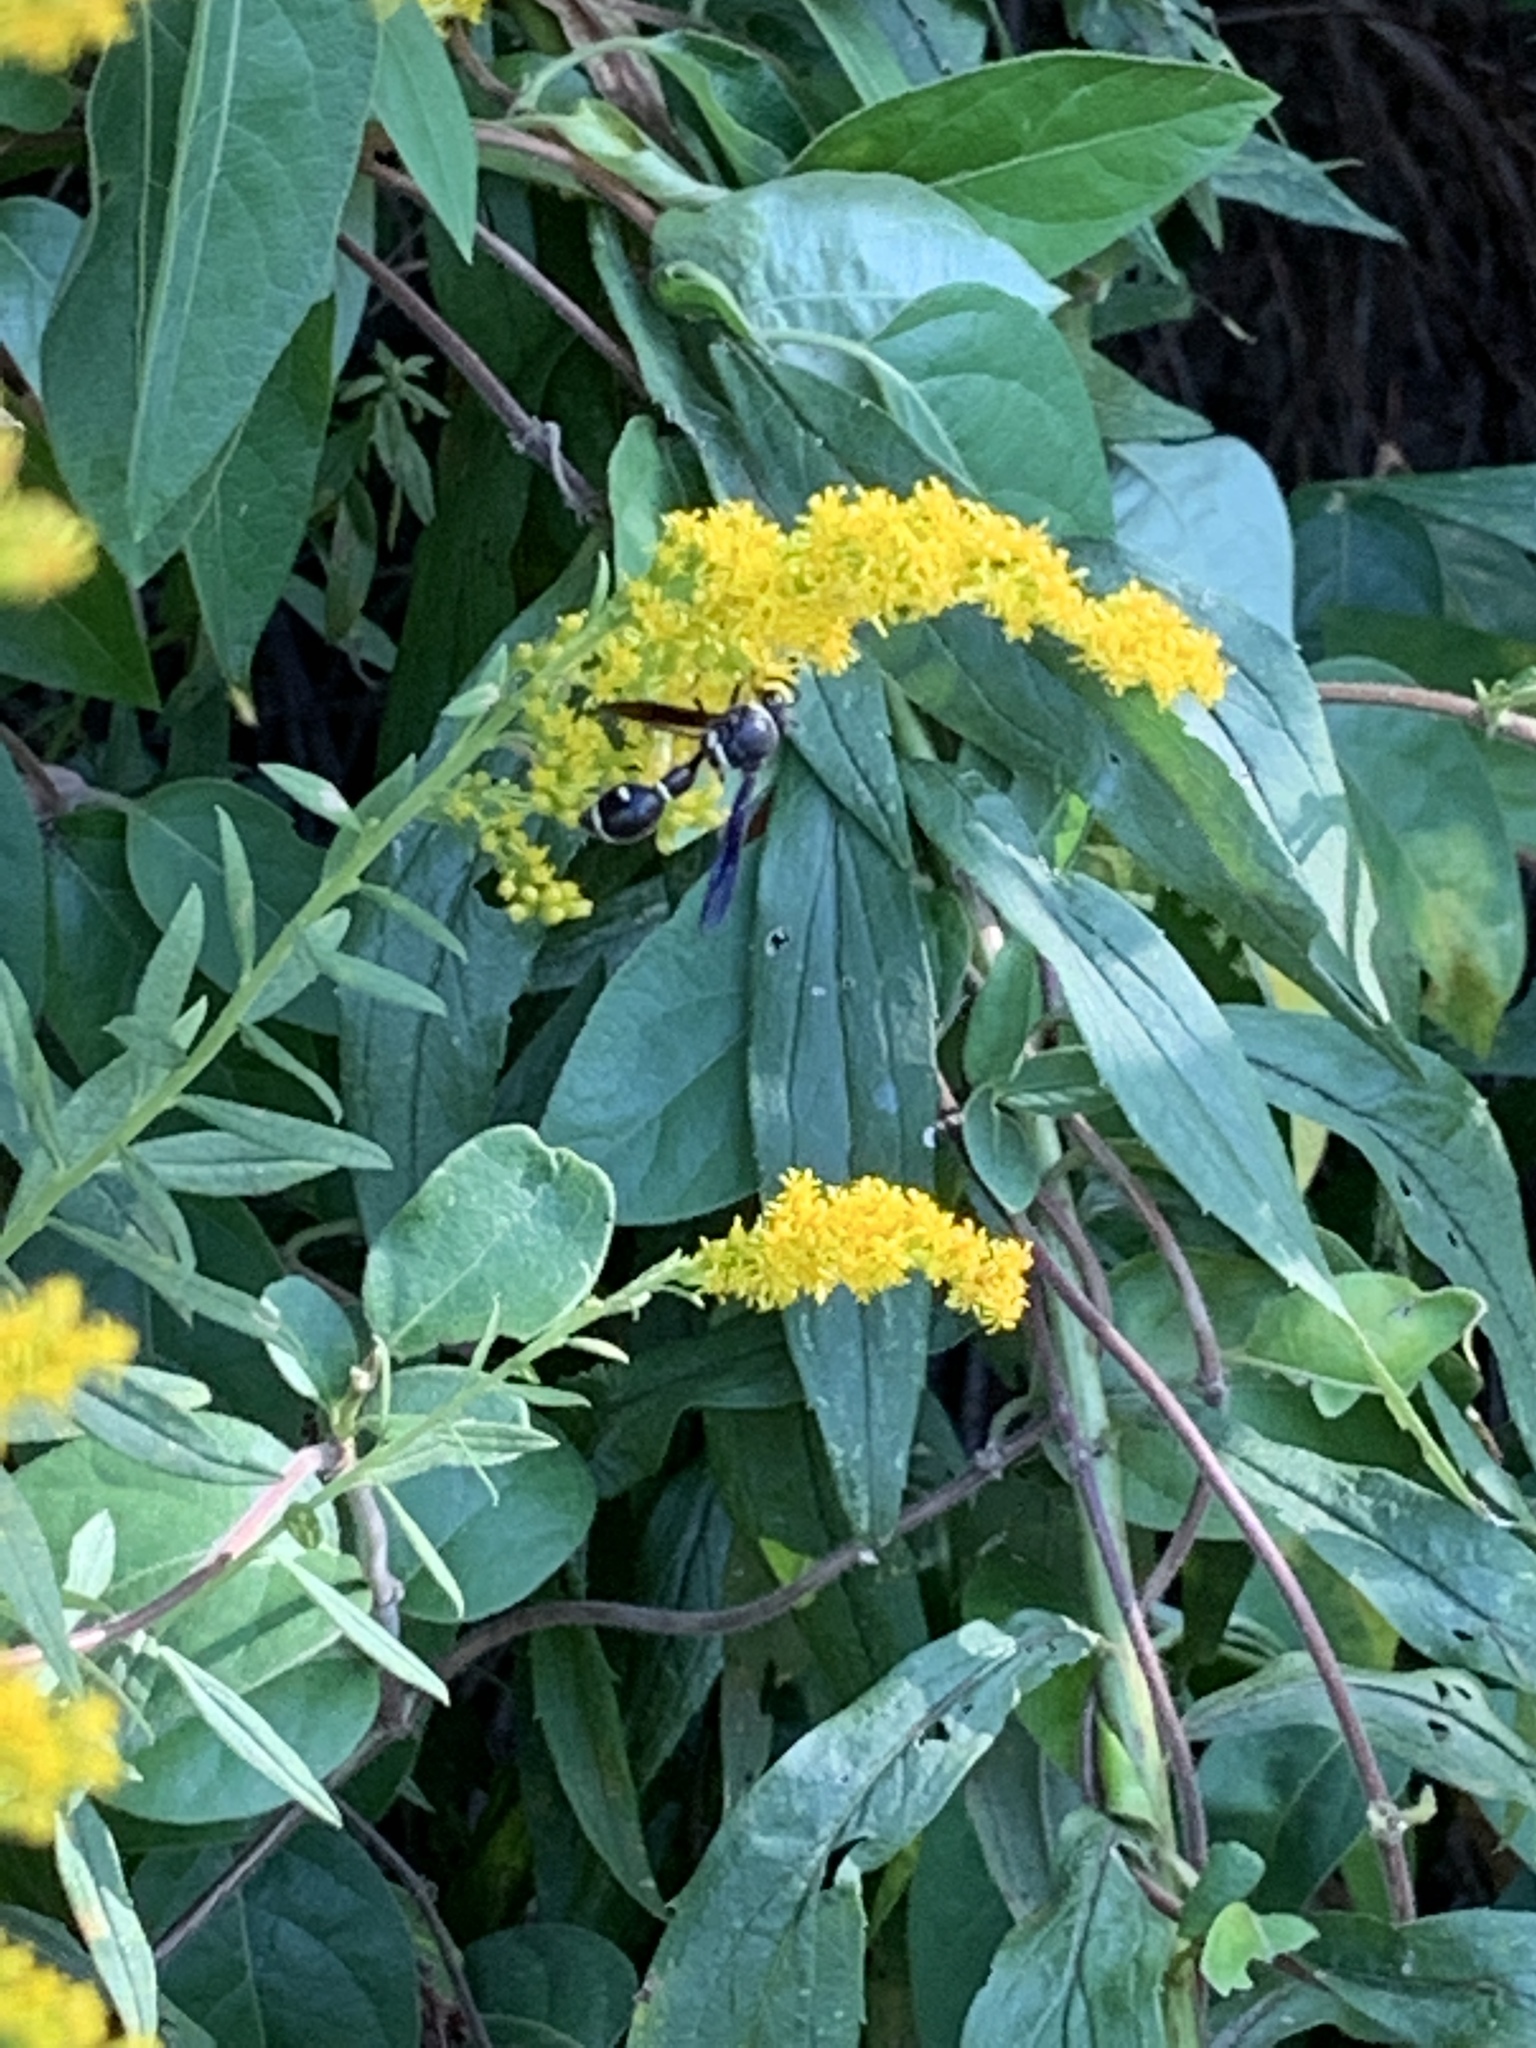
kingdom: Animalia
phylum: Arthropoda
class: Insecta
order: Hymenoptera
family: Vespidae
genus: Eumenes
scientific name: Eumenes fraternus
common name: Fraternal potter wasp
